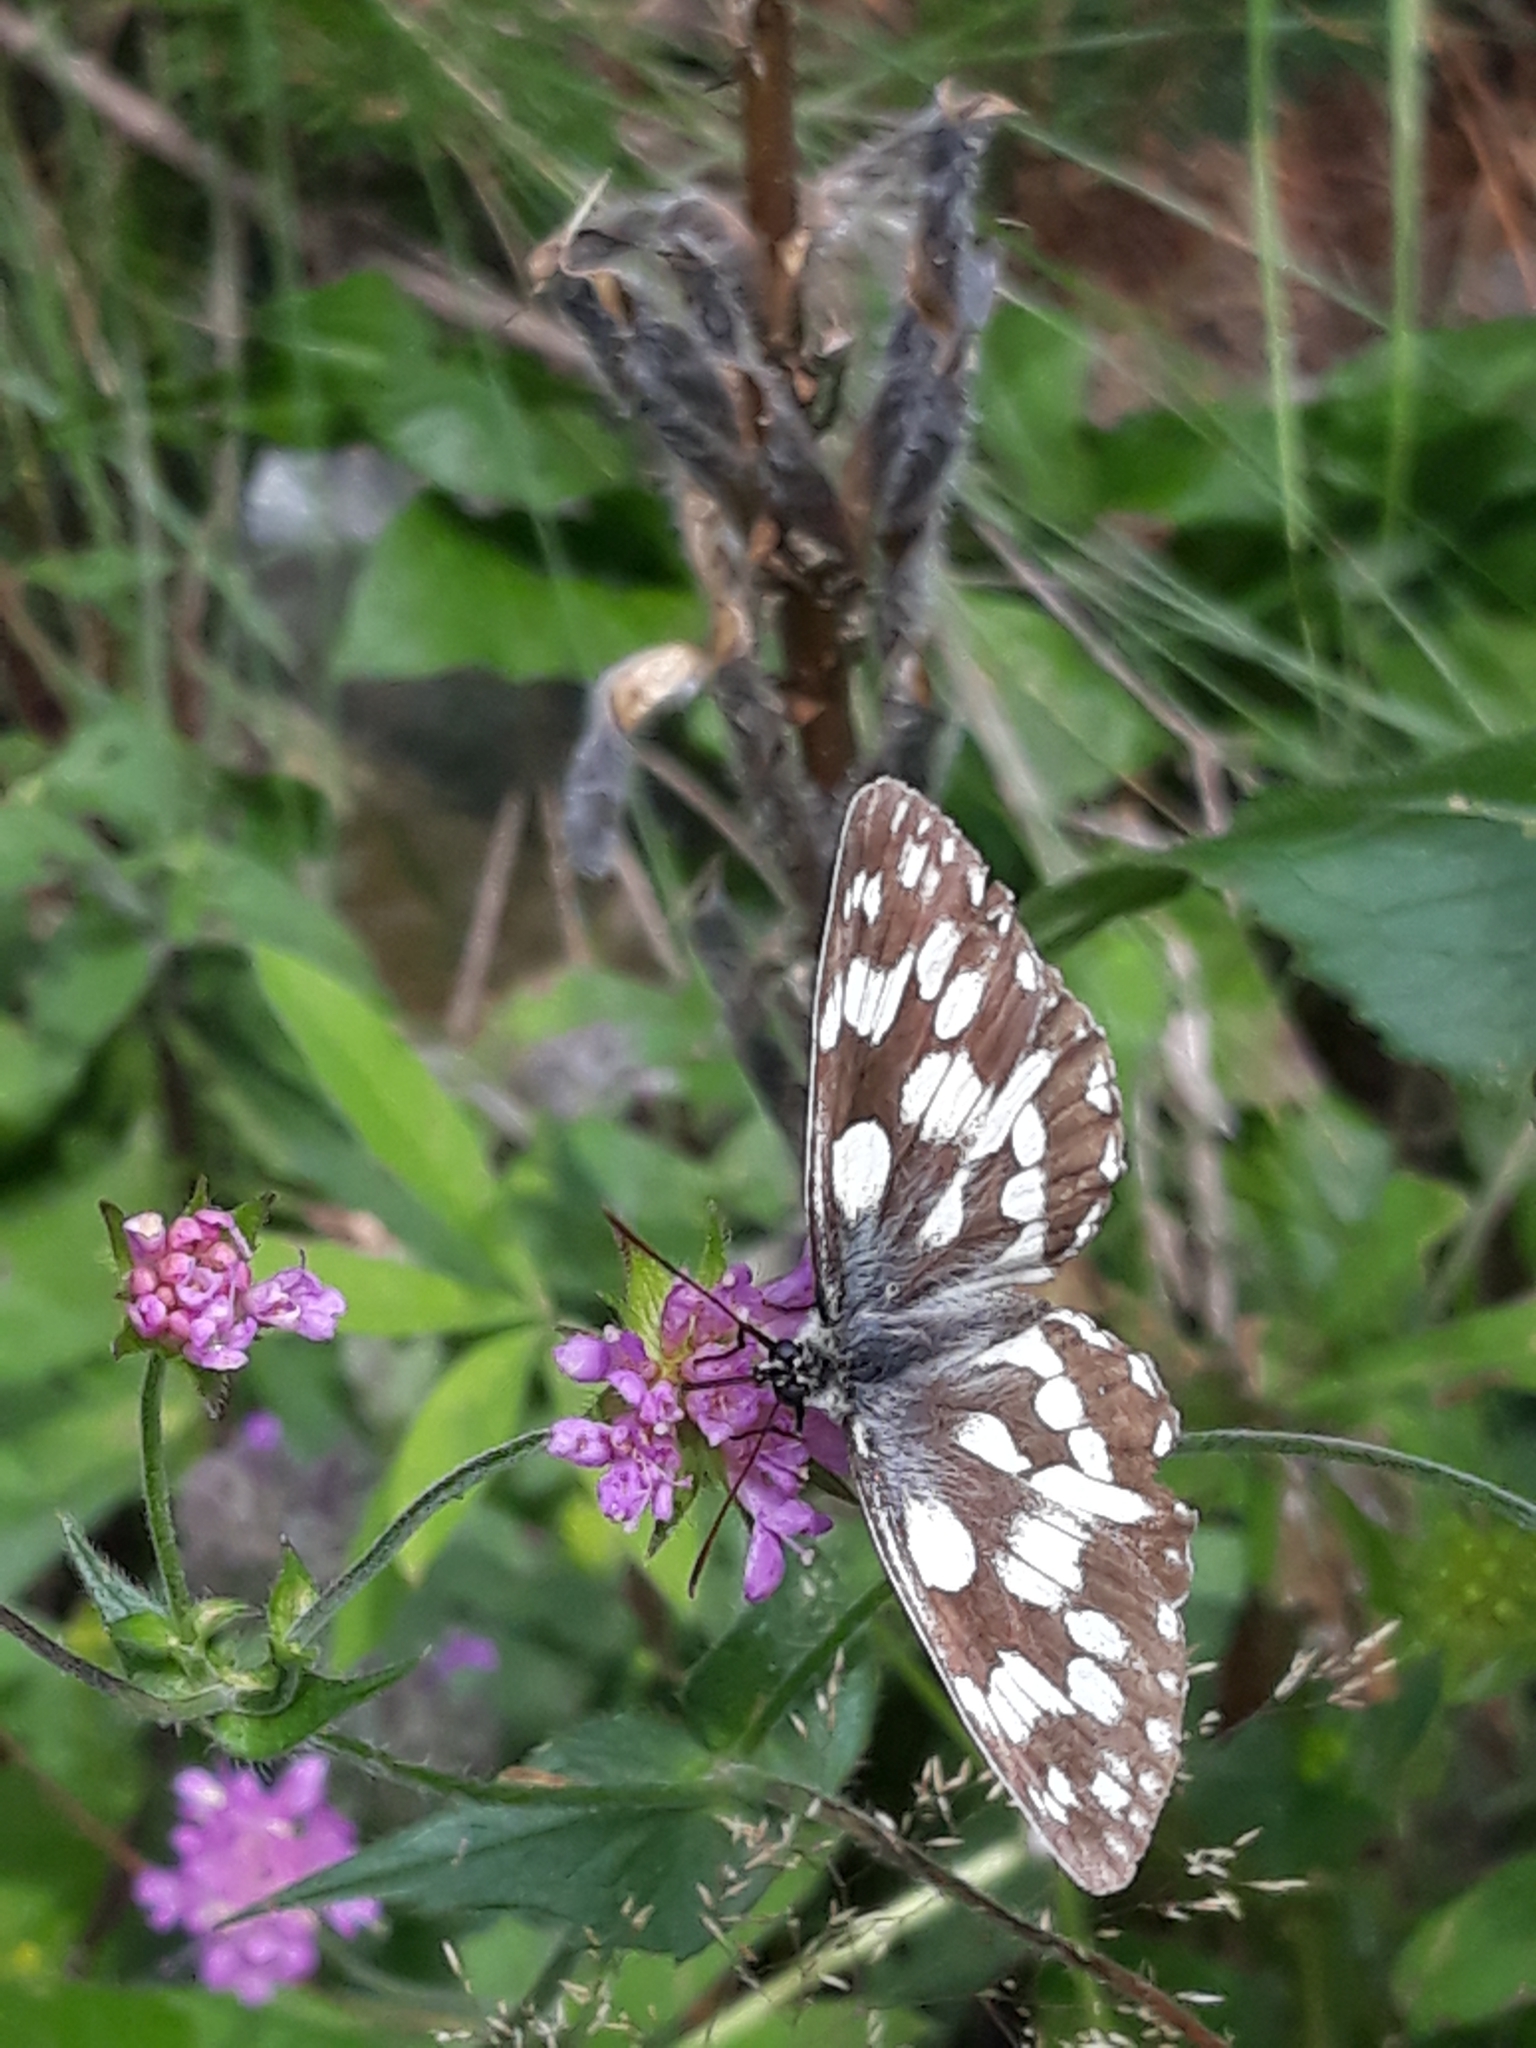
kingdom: Animalia
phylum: Arthropoda
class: Insecta
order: Lepidoptera
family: Nymphalidae
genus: Melanargia
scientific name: Melanargia galathea
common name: Marbled white
